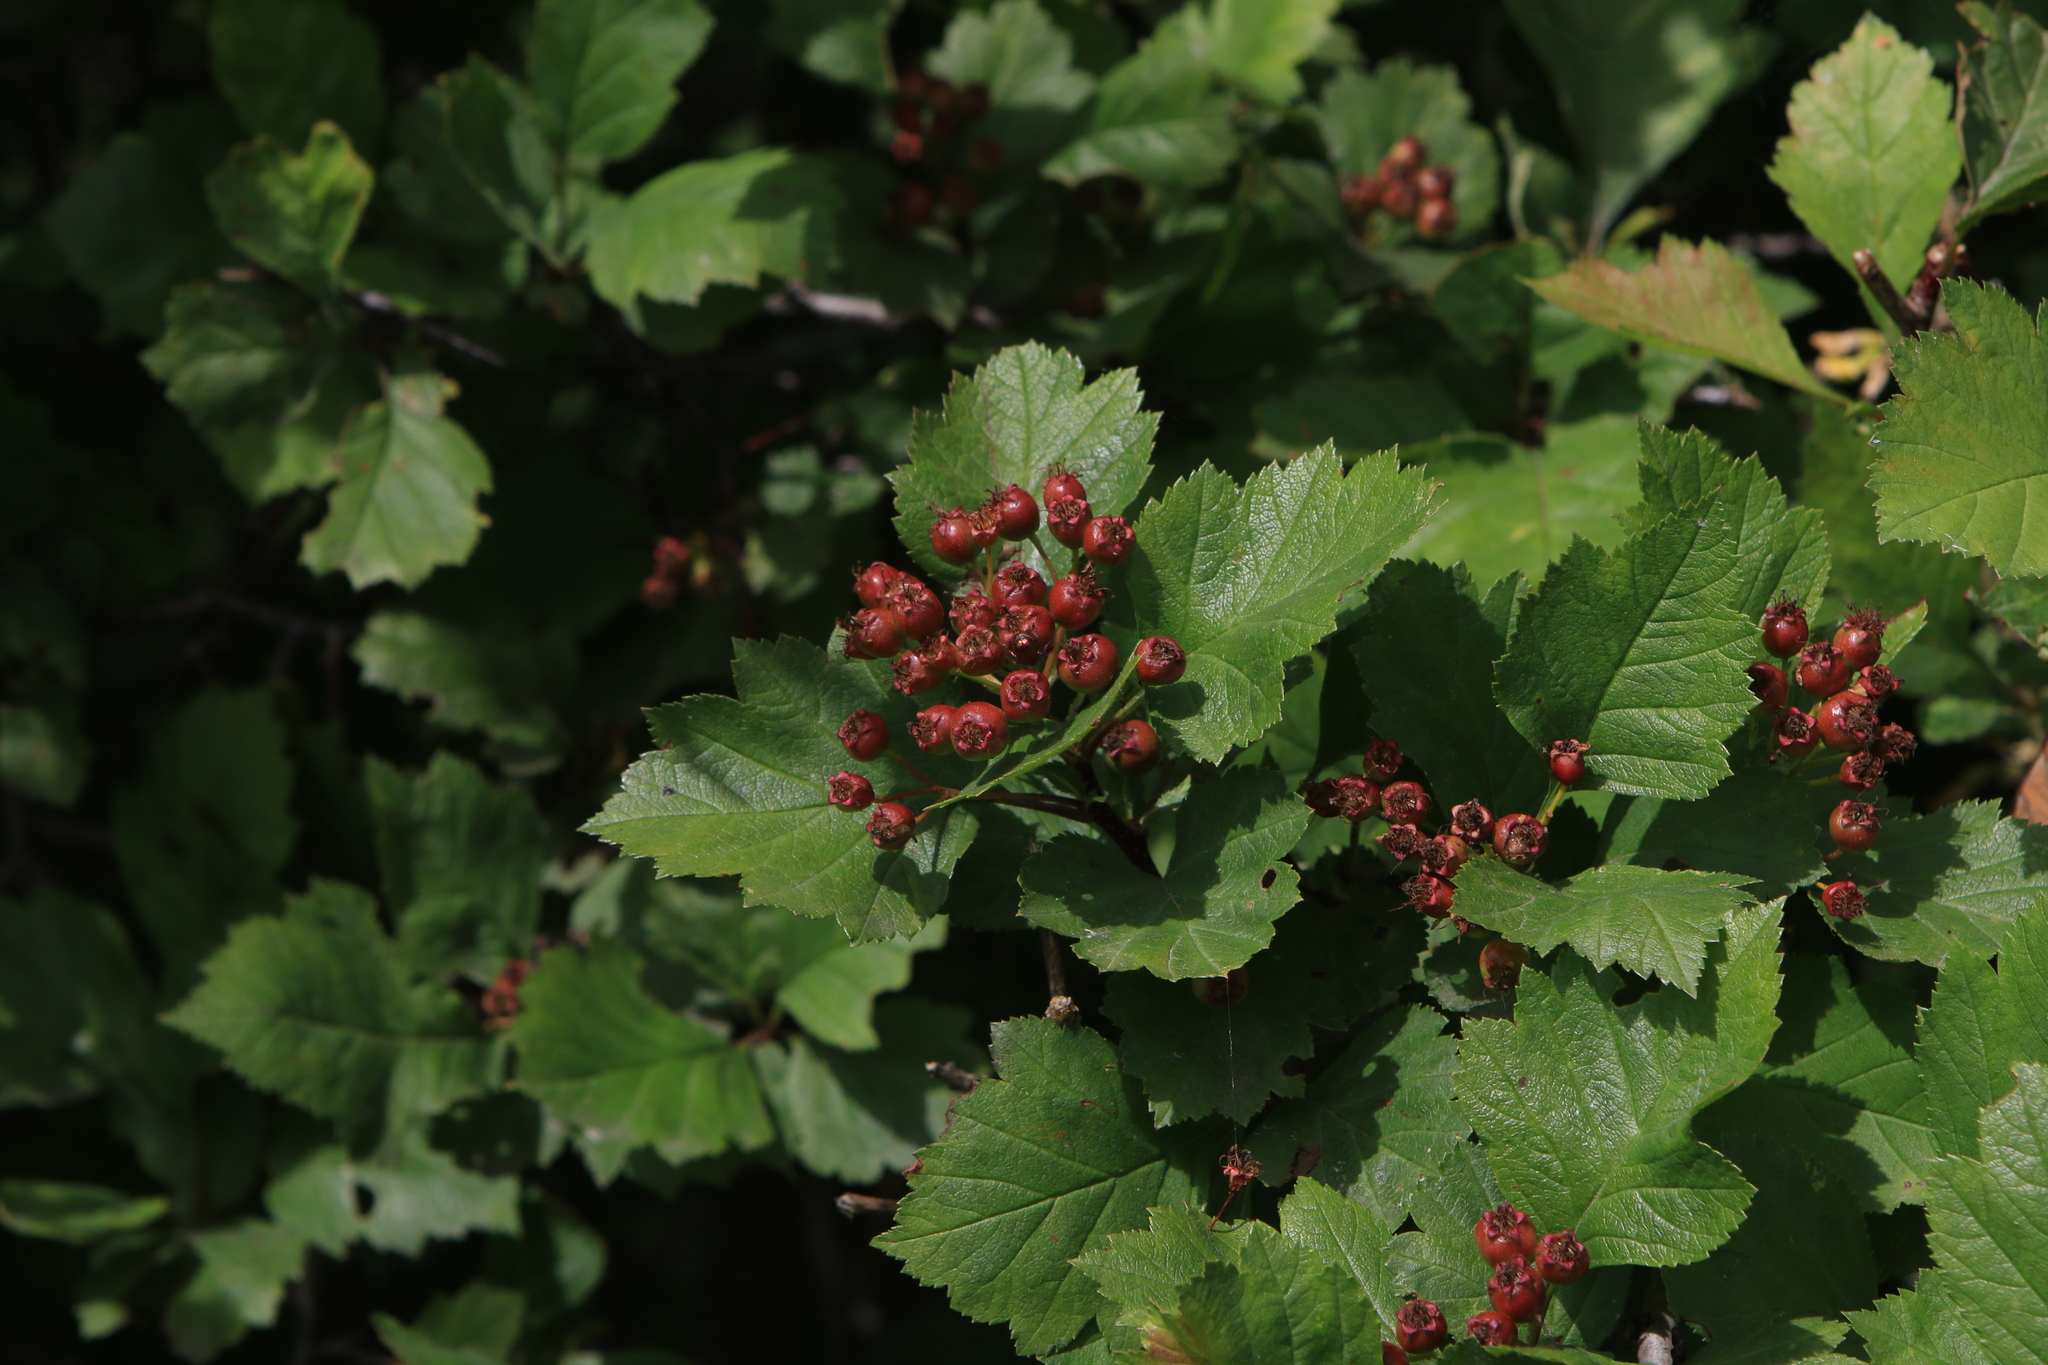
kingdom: Plantae
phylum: Tracheophyta
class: Magnoliopsida
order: Rosales
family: Rosaceae
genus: Crataegus
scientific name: Crataegus sanguinea
